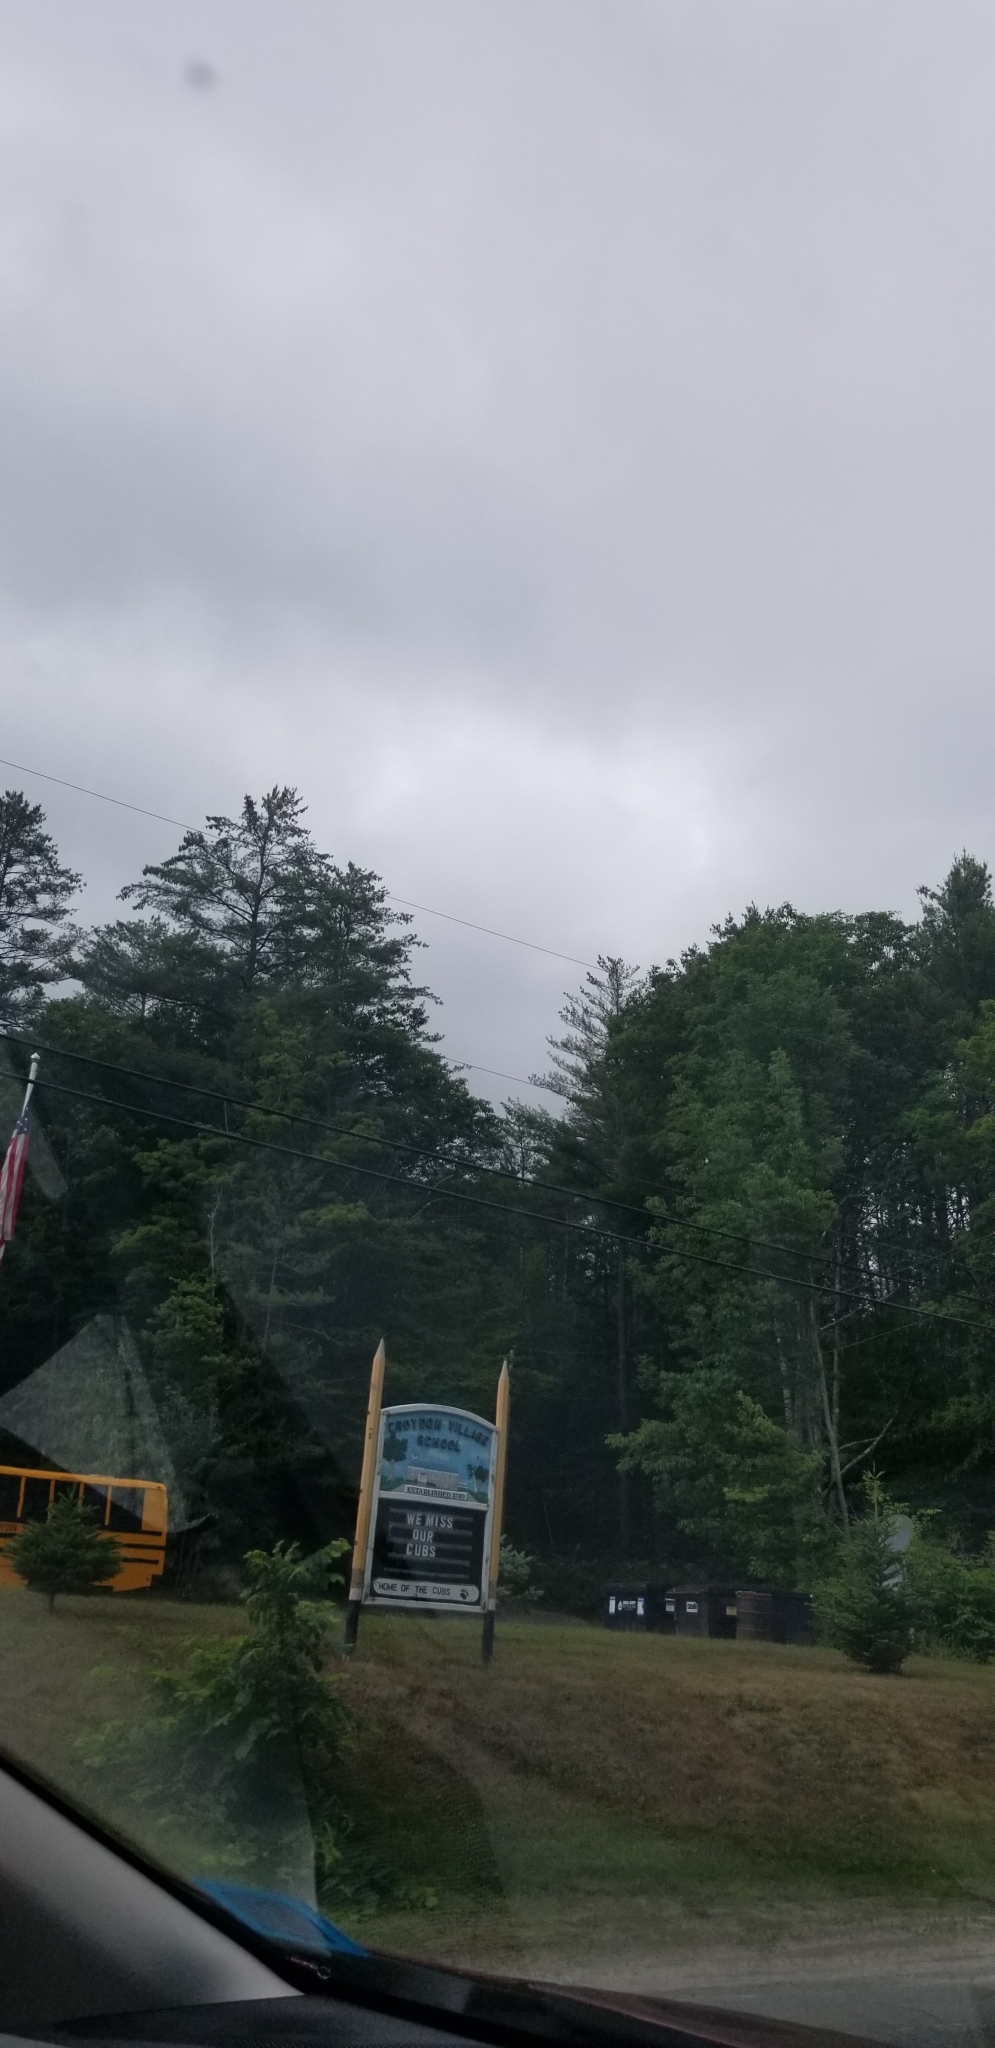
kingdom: Plantae
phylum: Tracheophyta
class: Pinopsida
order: Pinales
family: Pinaceae
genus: Pinus
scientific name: Pinus strobus
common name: Weymouth pine
